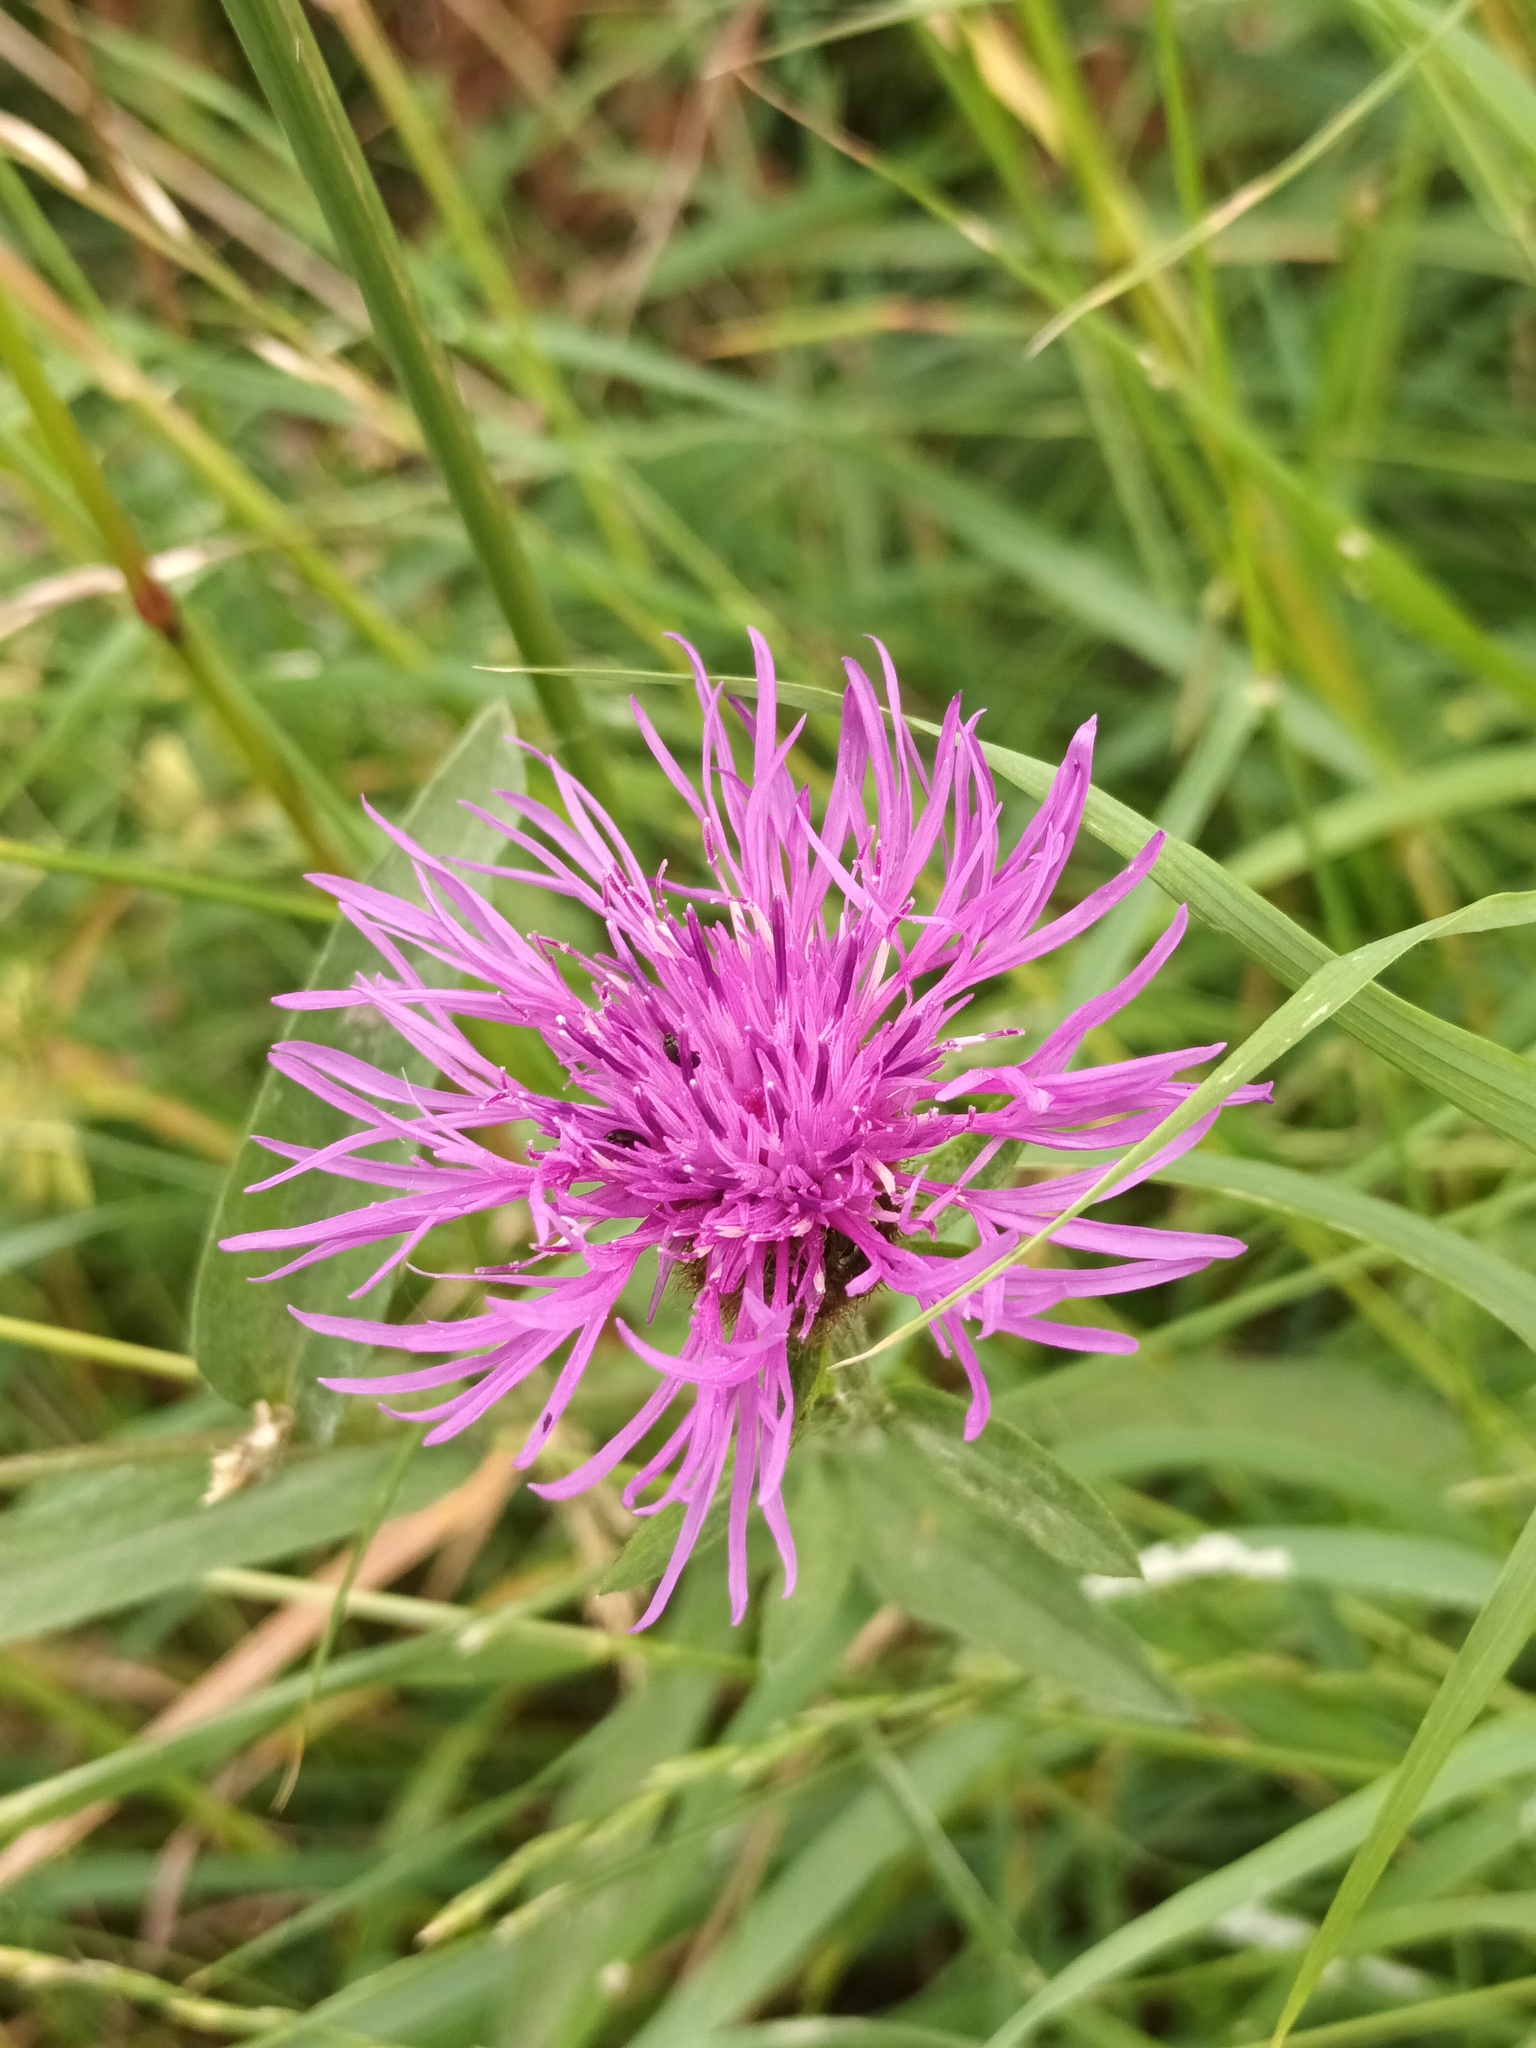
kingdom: Plantae
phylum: Tracheophyta
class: Magnoliopsida
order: Asterales
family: Asteraceae
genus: Centaurea
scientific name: Centaurea nigra
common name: Lesser knapweed
